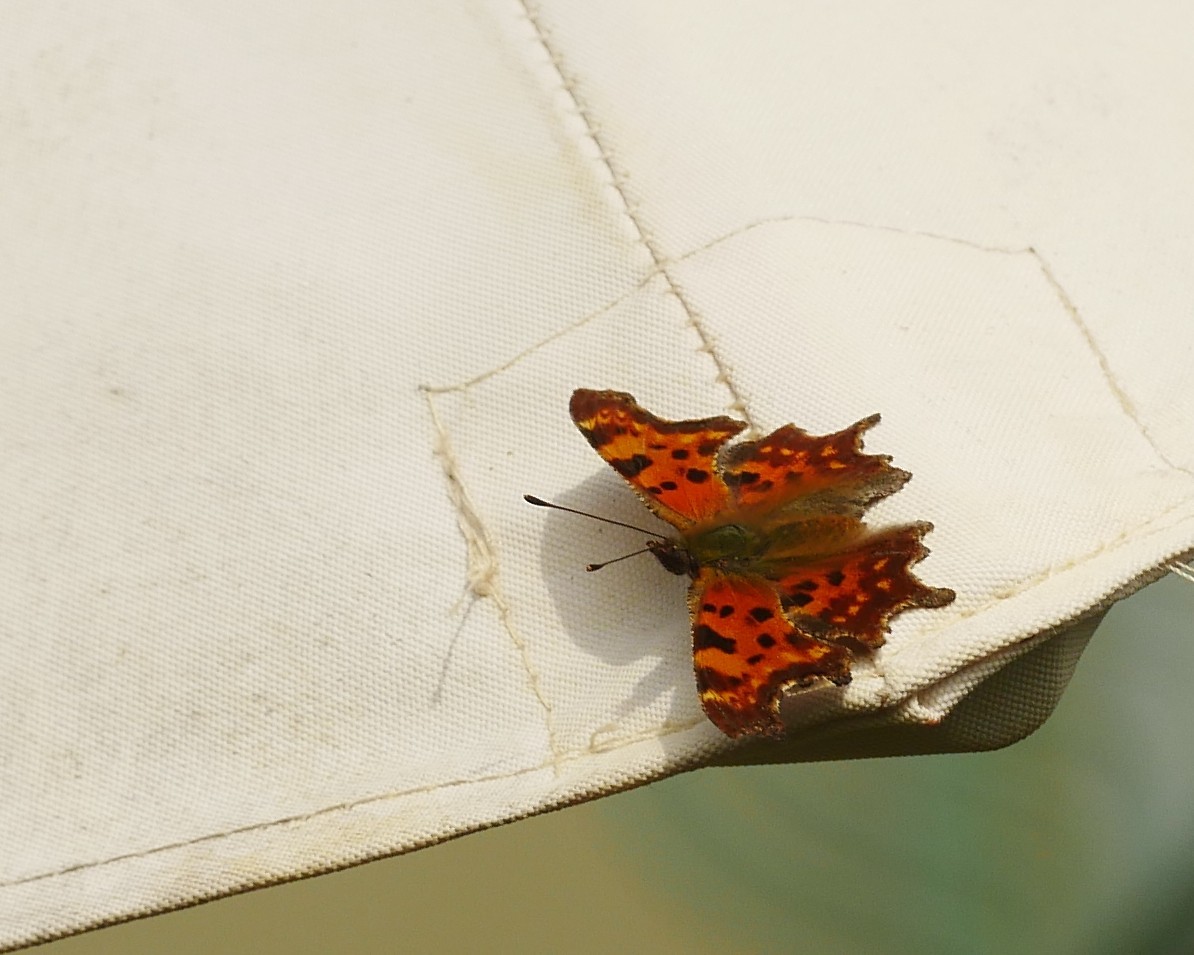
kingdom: Animalia
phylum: Arthropoda
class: Insecta
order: Lepidoptera
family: Nymphalidae
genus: Polygonia
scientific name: Polygonia c-album
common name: Comma
